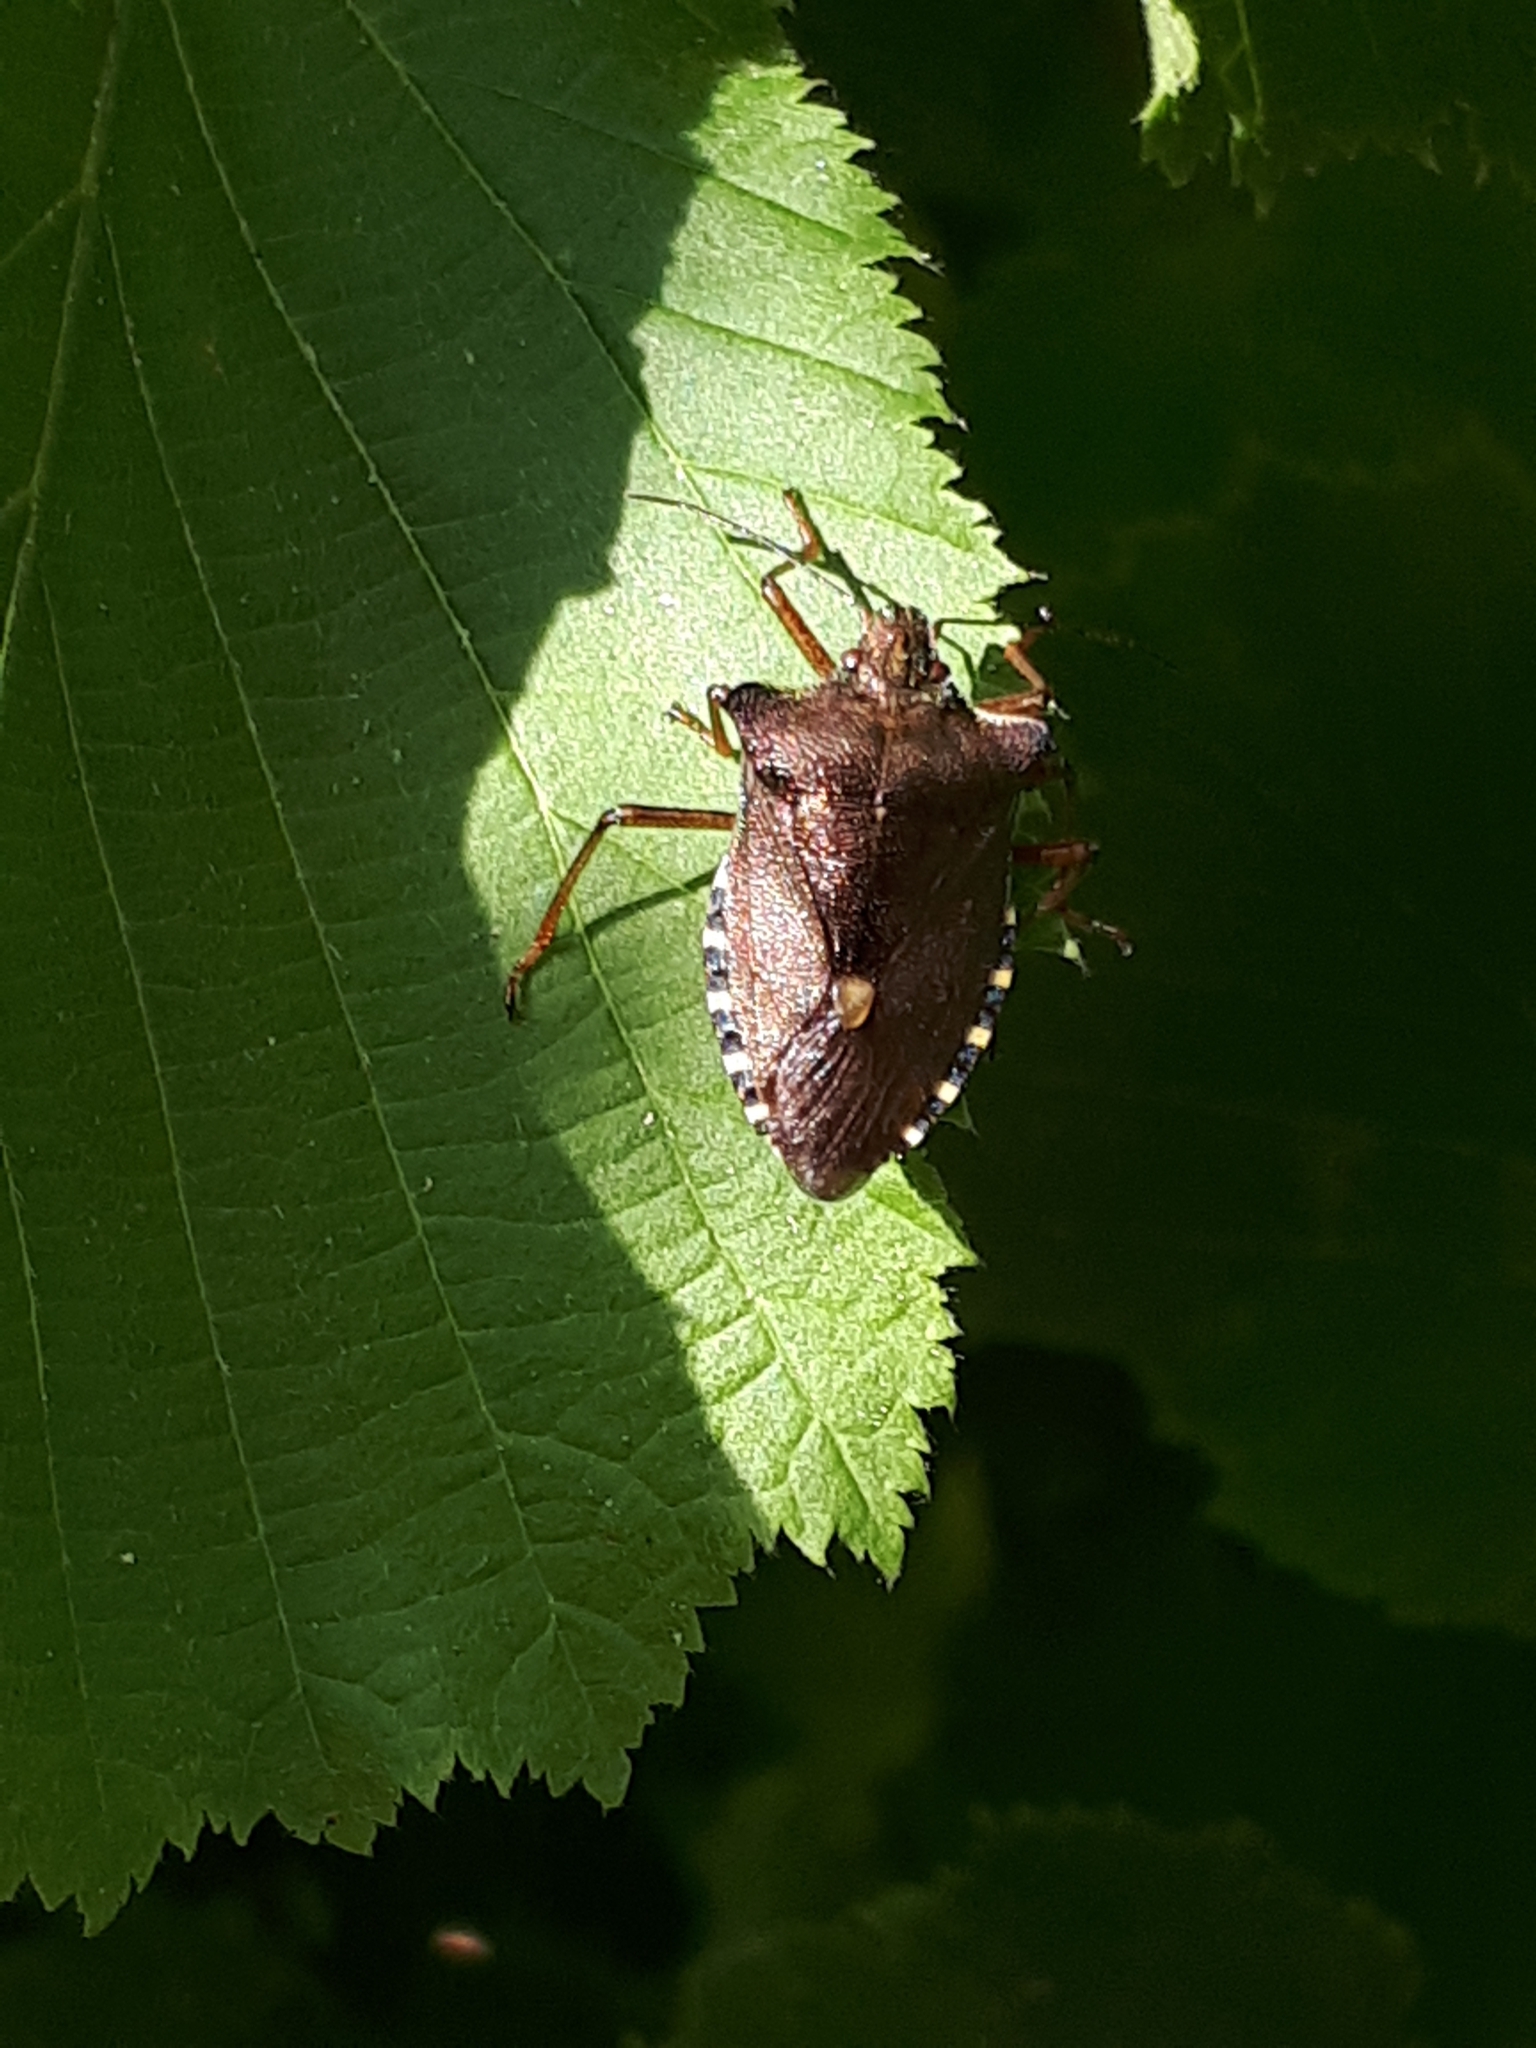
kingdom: Animalia
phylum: Arthropoda
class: Insecta
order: Hemiptera
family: Pentatomidae
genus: Pentatoma
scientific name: Pentatoma rufipes
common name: Forest bug
